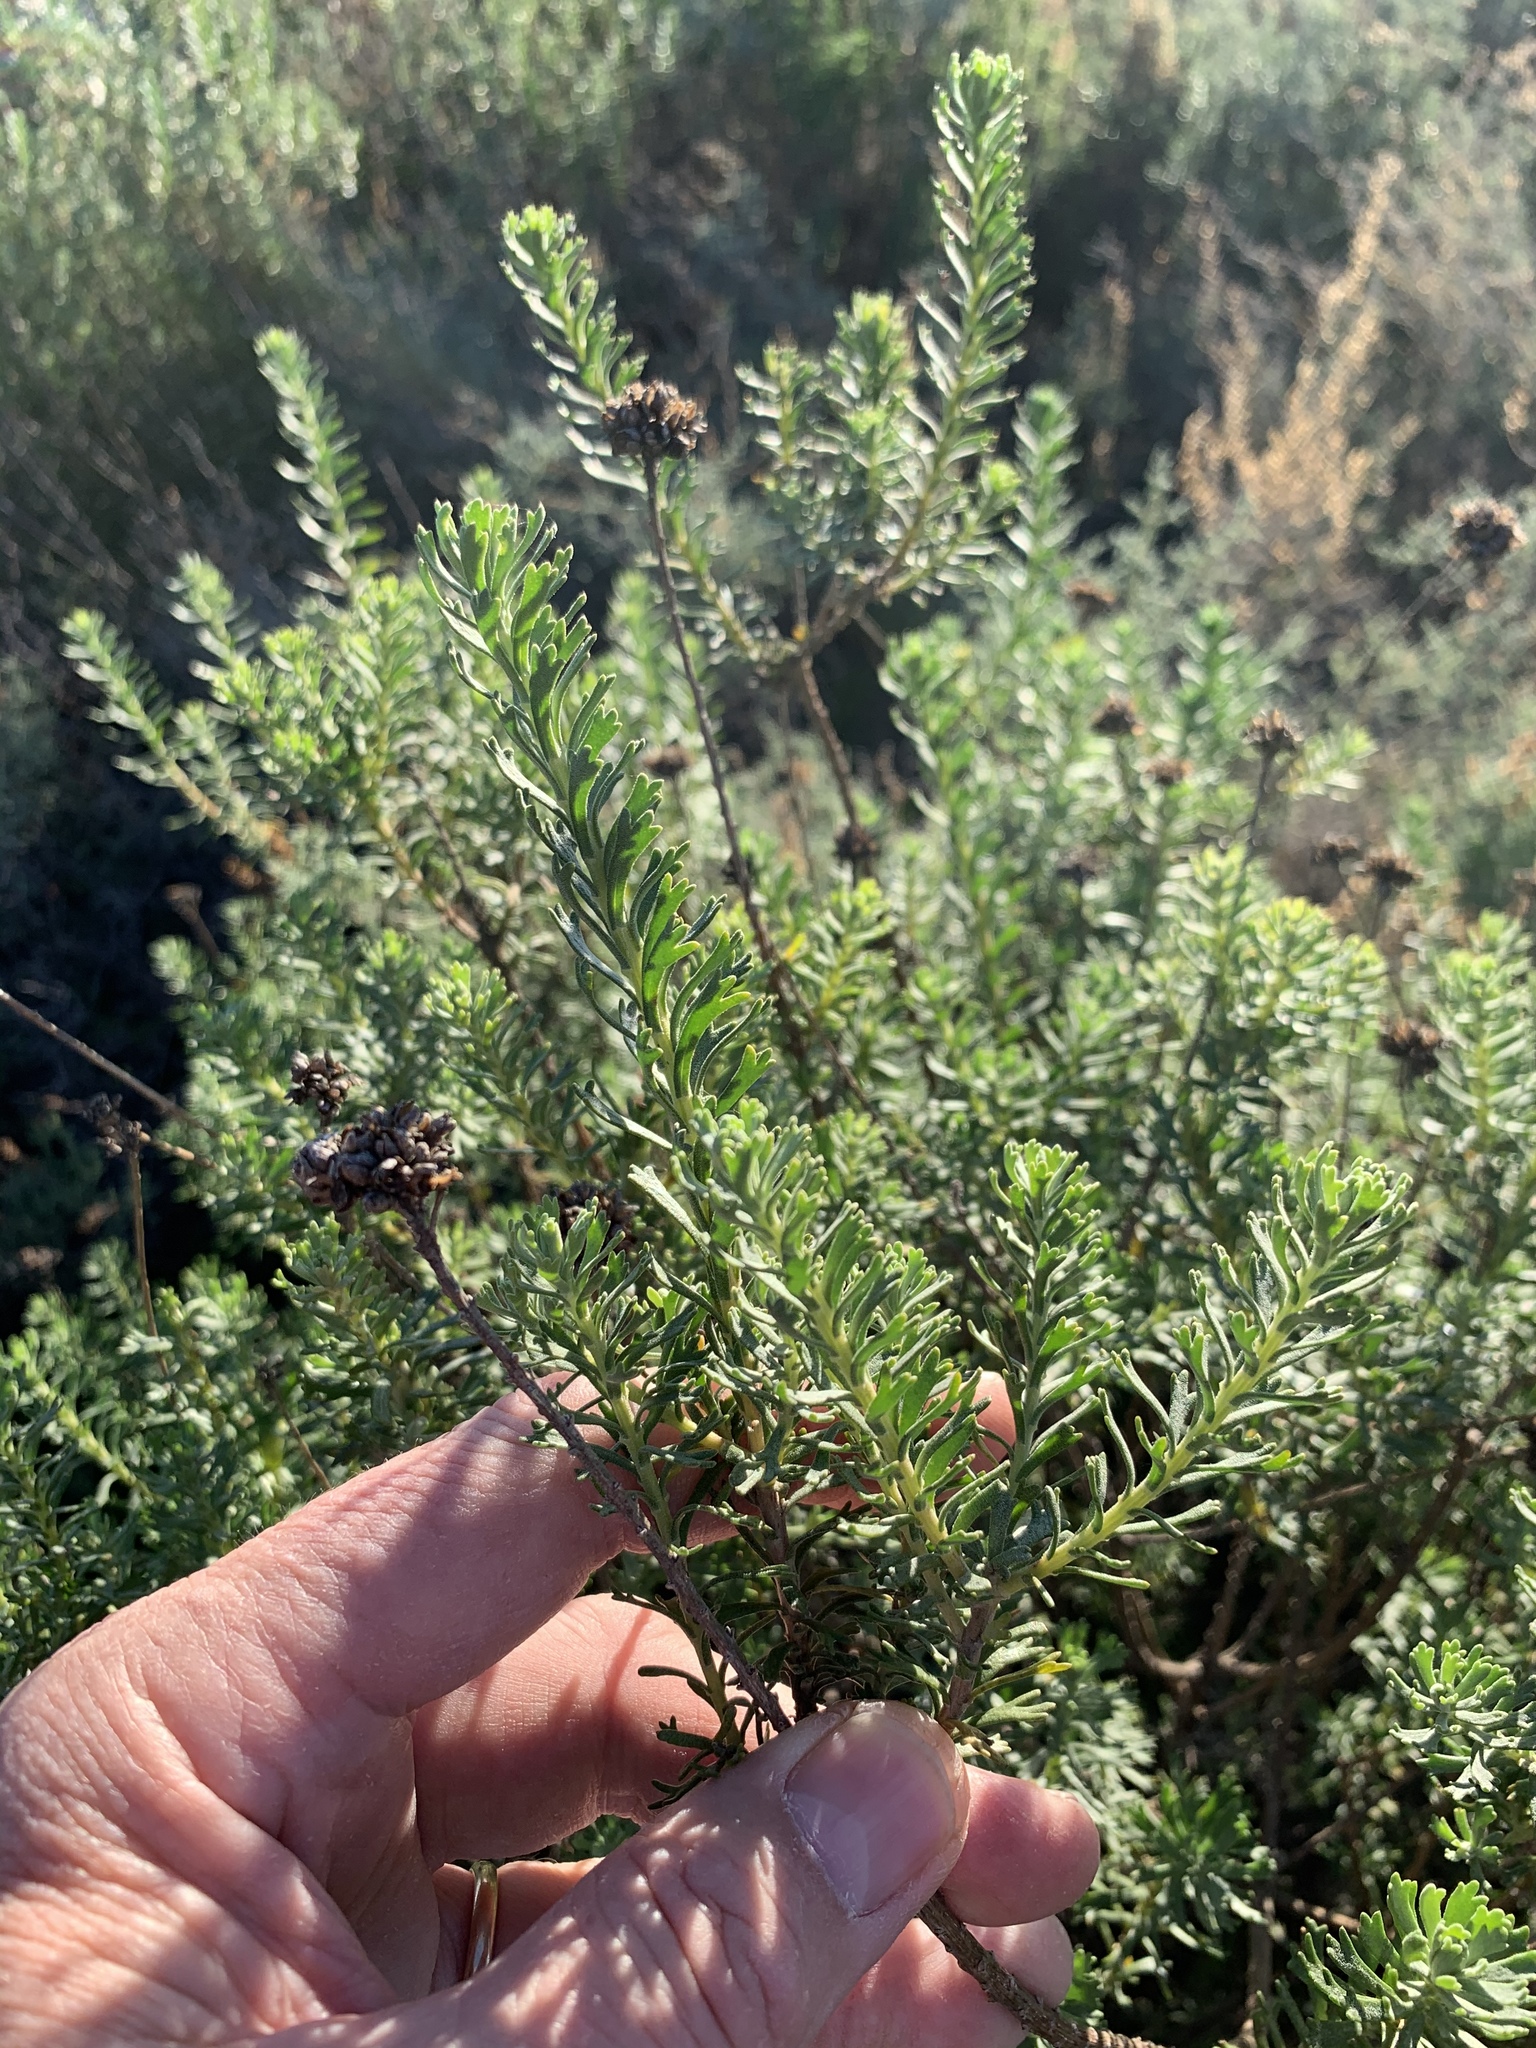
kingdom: Plantae
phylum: Tracheophyta
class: Magnoliopsida
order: Asterales
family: Asteraceae
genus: Athanasia
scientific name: Athanasia trifurcata
